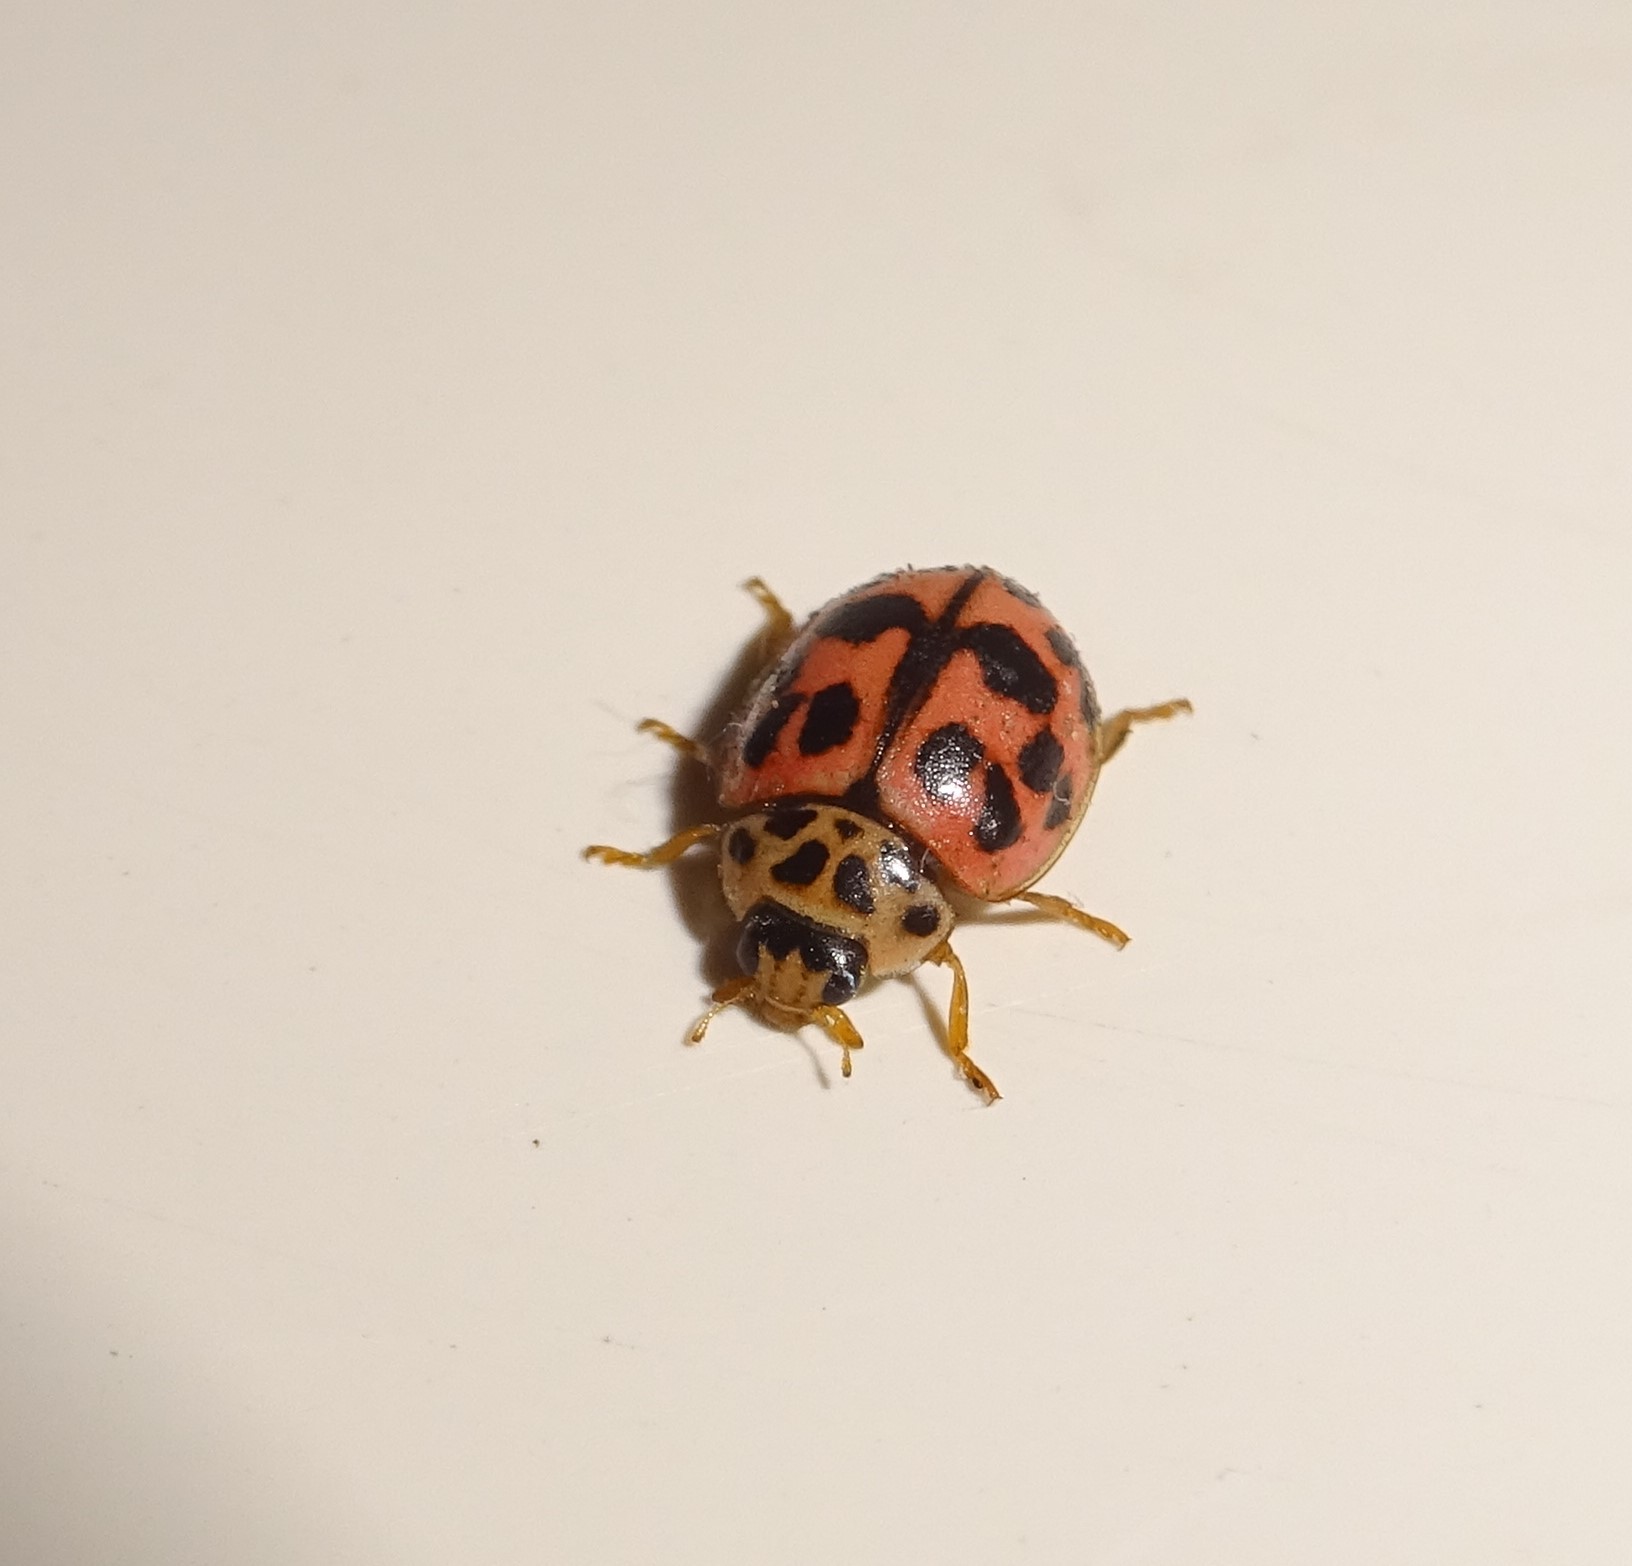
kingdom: Animalia
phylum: Arthropoda
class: Insecta
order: Coleoptera
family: Coccinellidae
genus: Oenopia
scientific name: Oenopia conglobata
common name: Ladybird beetle
